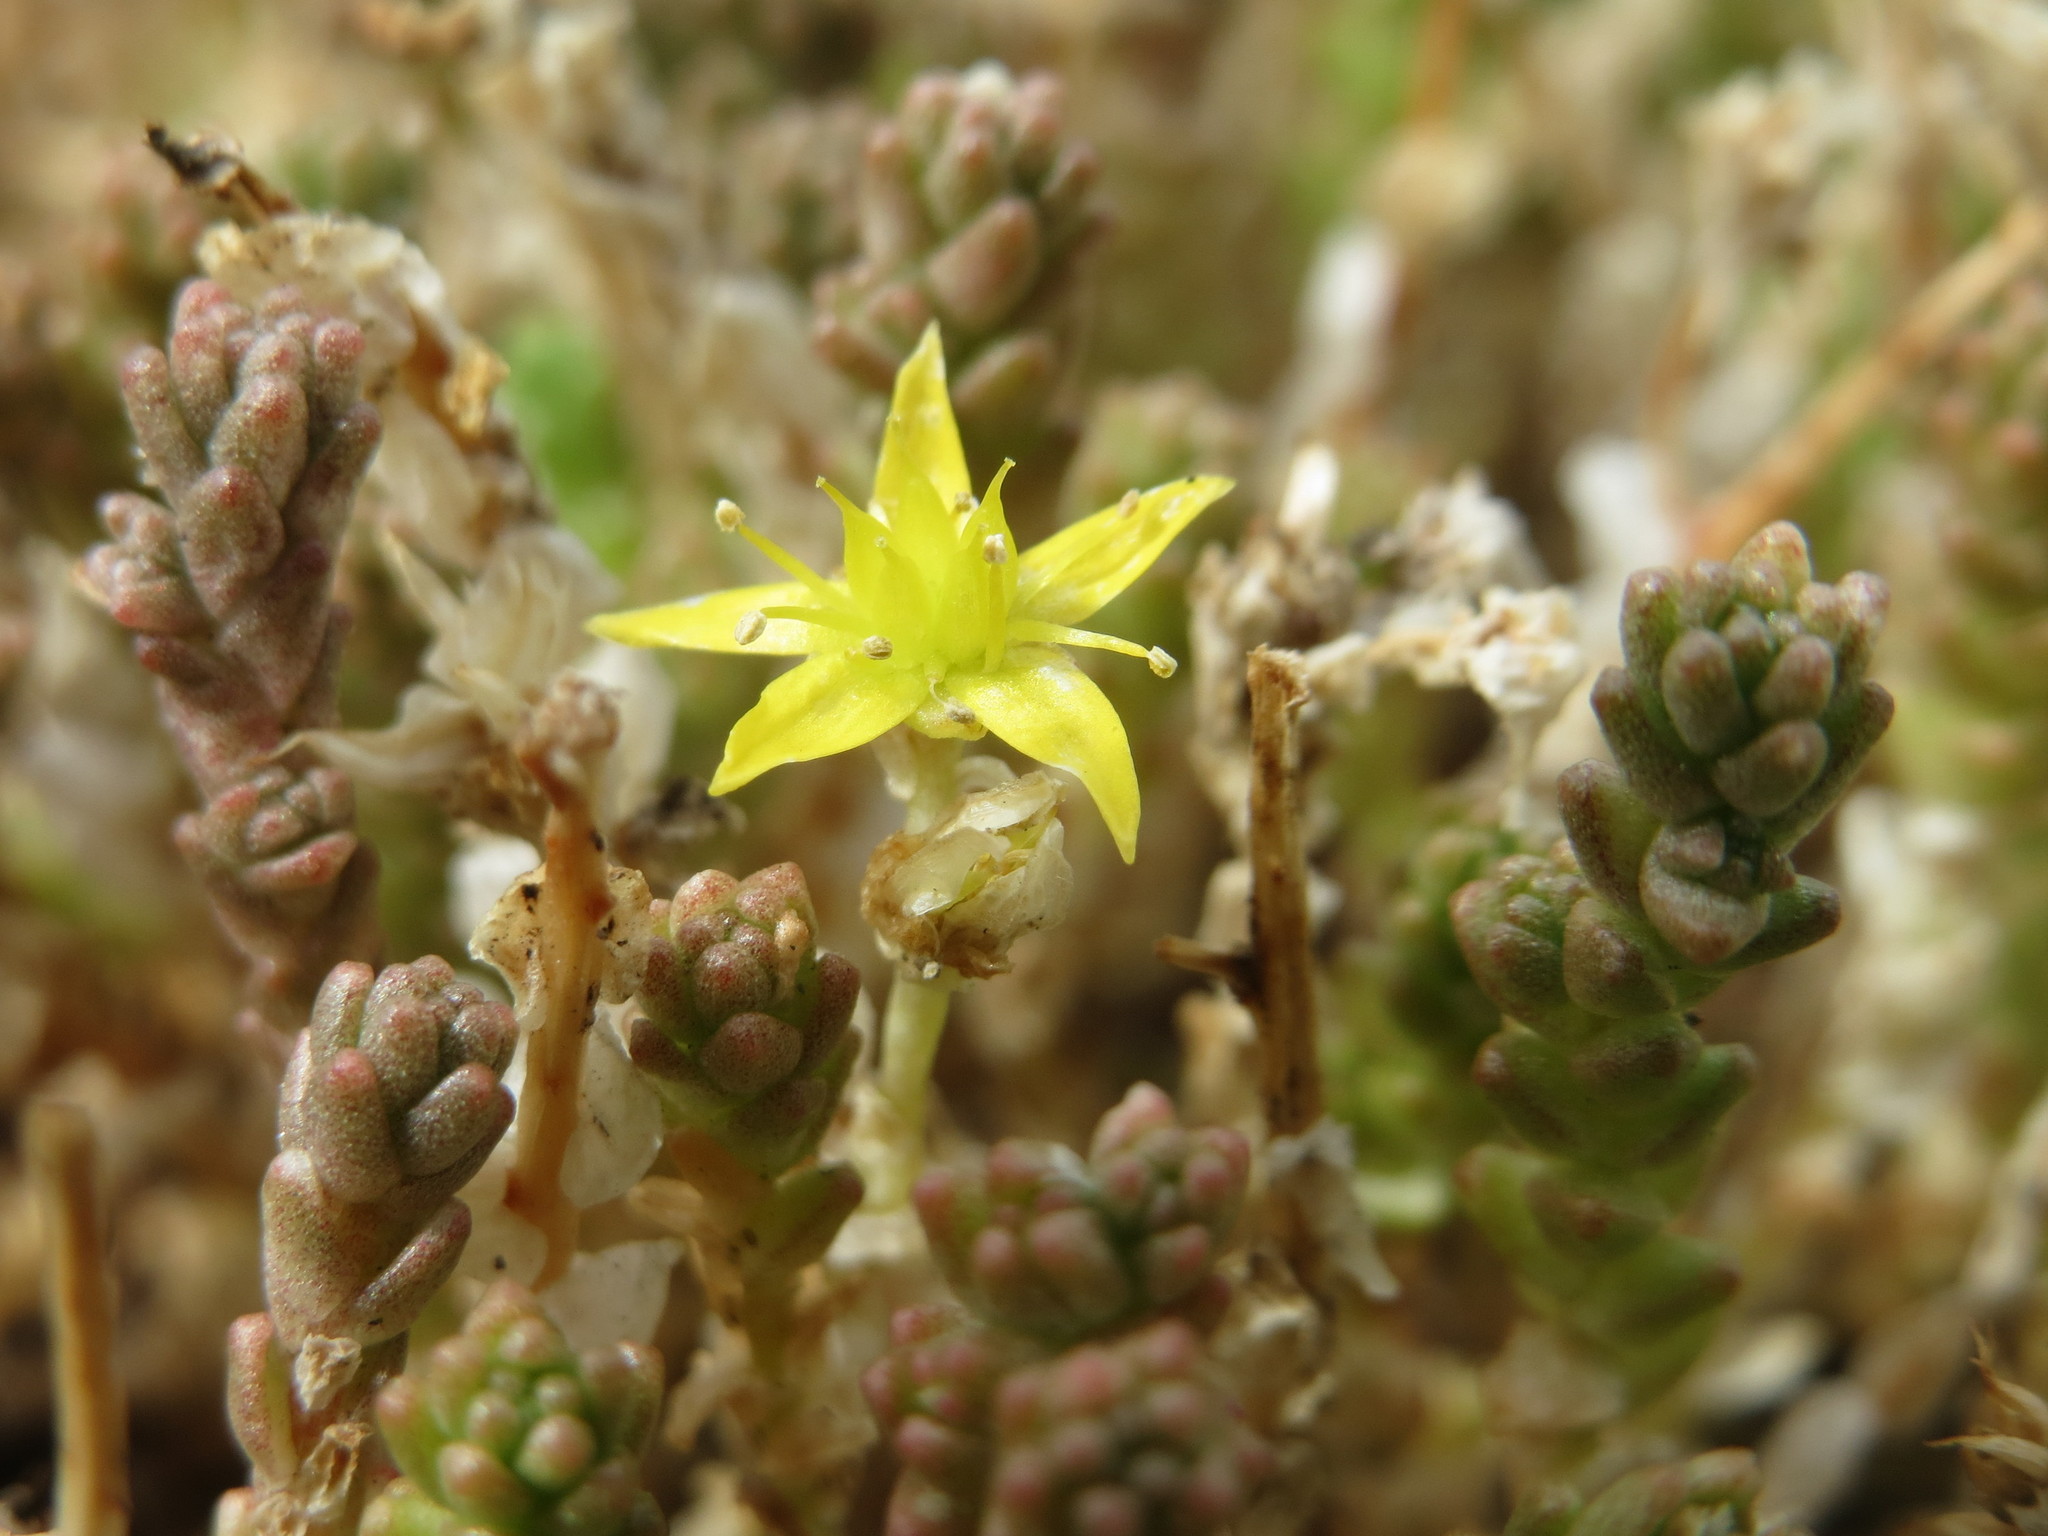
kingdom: Plantae
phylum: Tracheophyta
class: Magnoliopsida
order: Saxifragales
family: Crassulaceae
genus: Sedum
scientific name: Sedum acre
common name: Biting stonecrop
